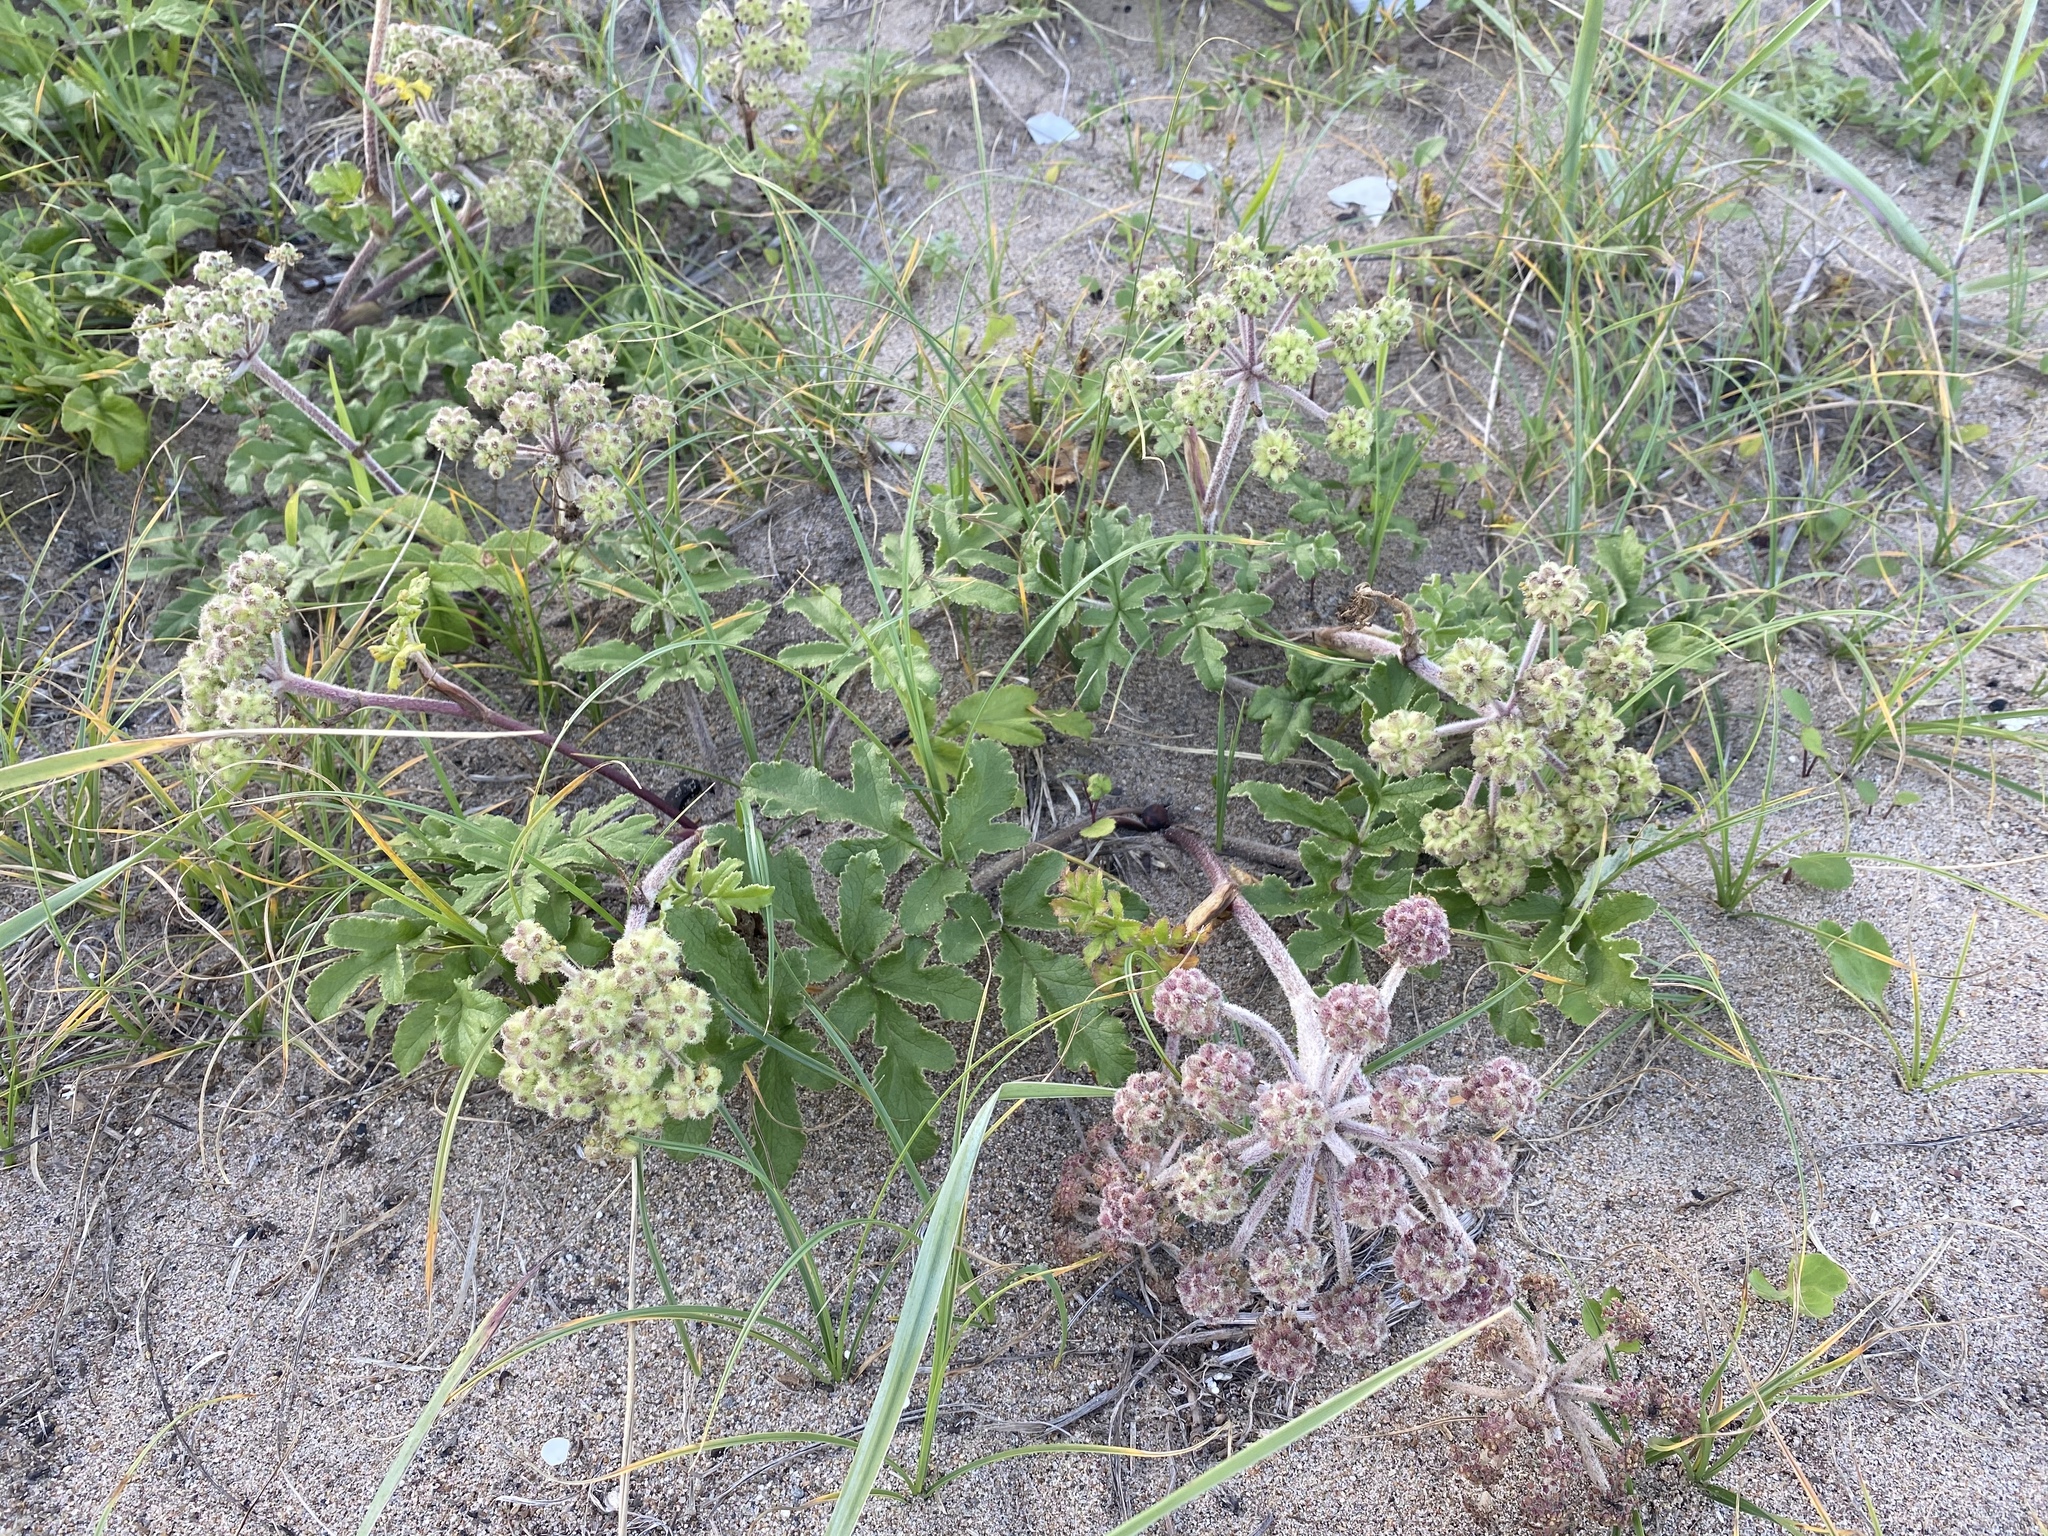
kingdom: Plantae
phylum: Tracheophyta
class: Magnoliopsida
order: Apiales
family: Apiaceae
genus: Glehnia
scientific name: Glehnia littoralis
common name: Beach silvertop
